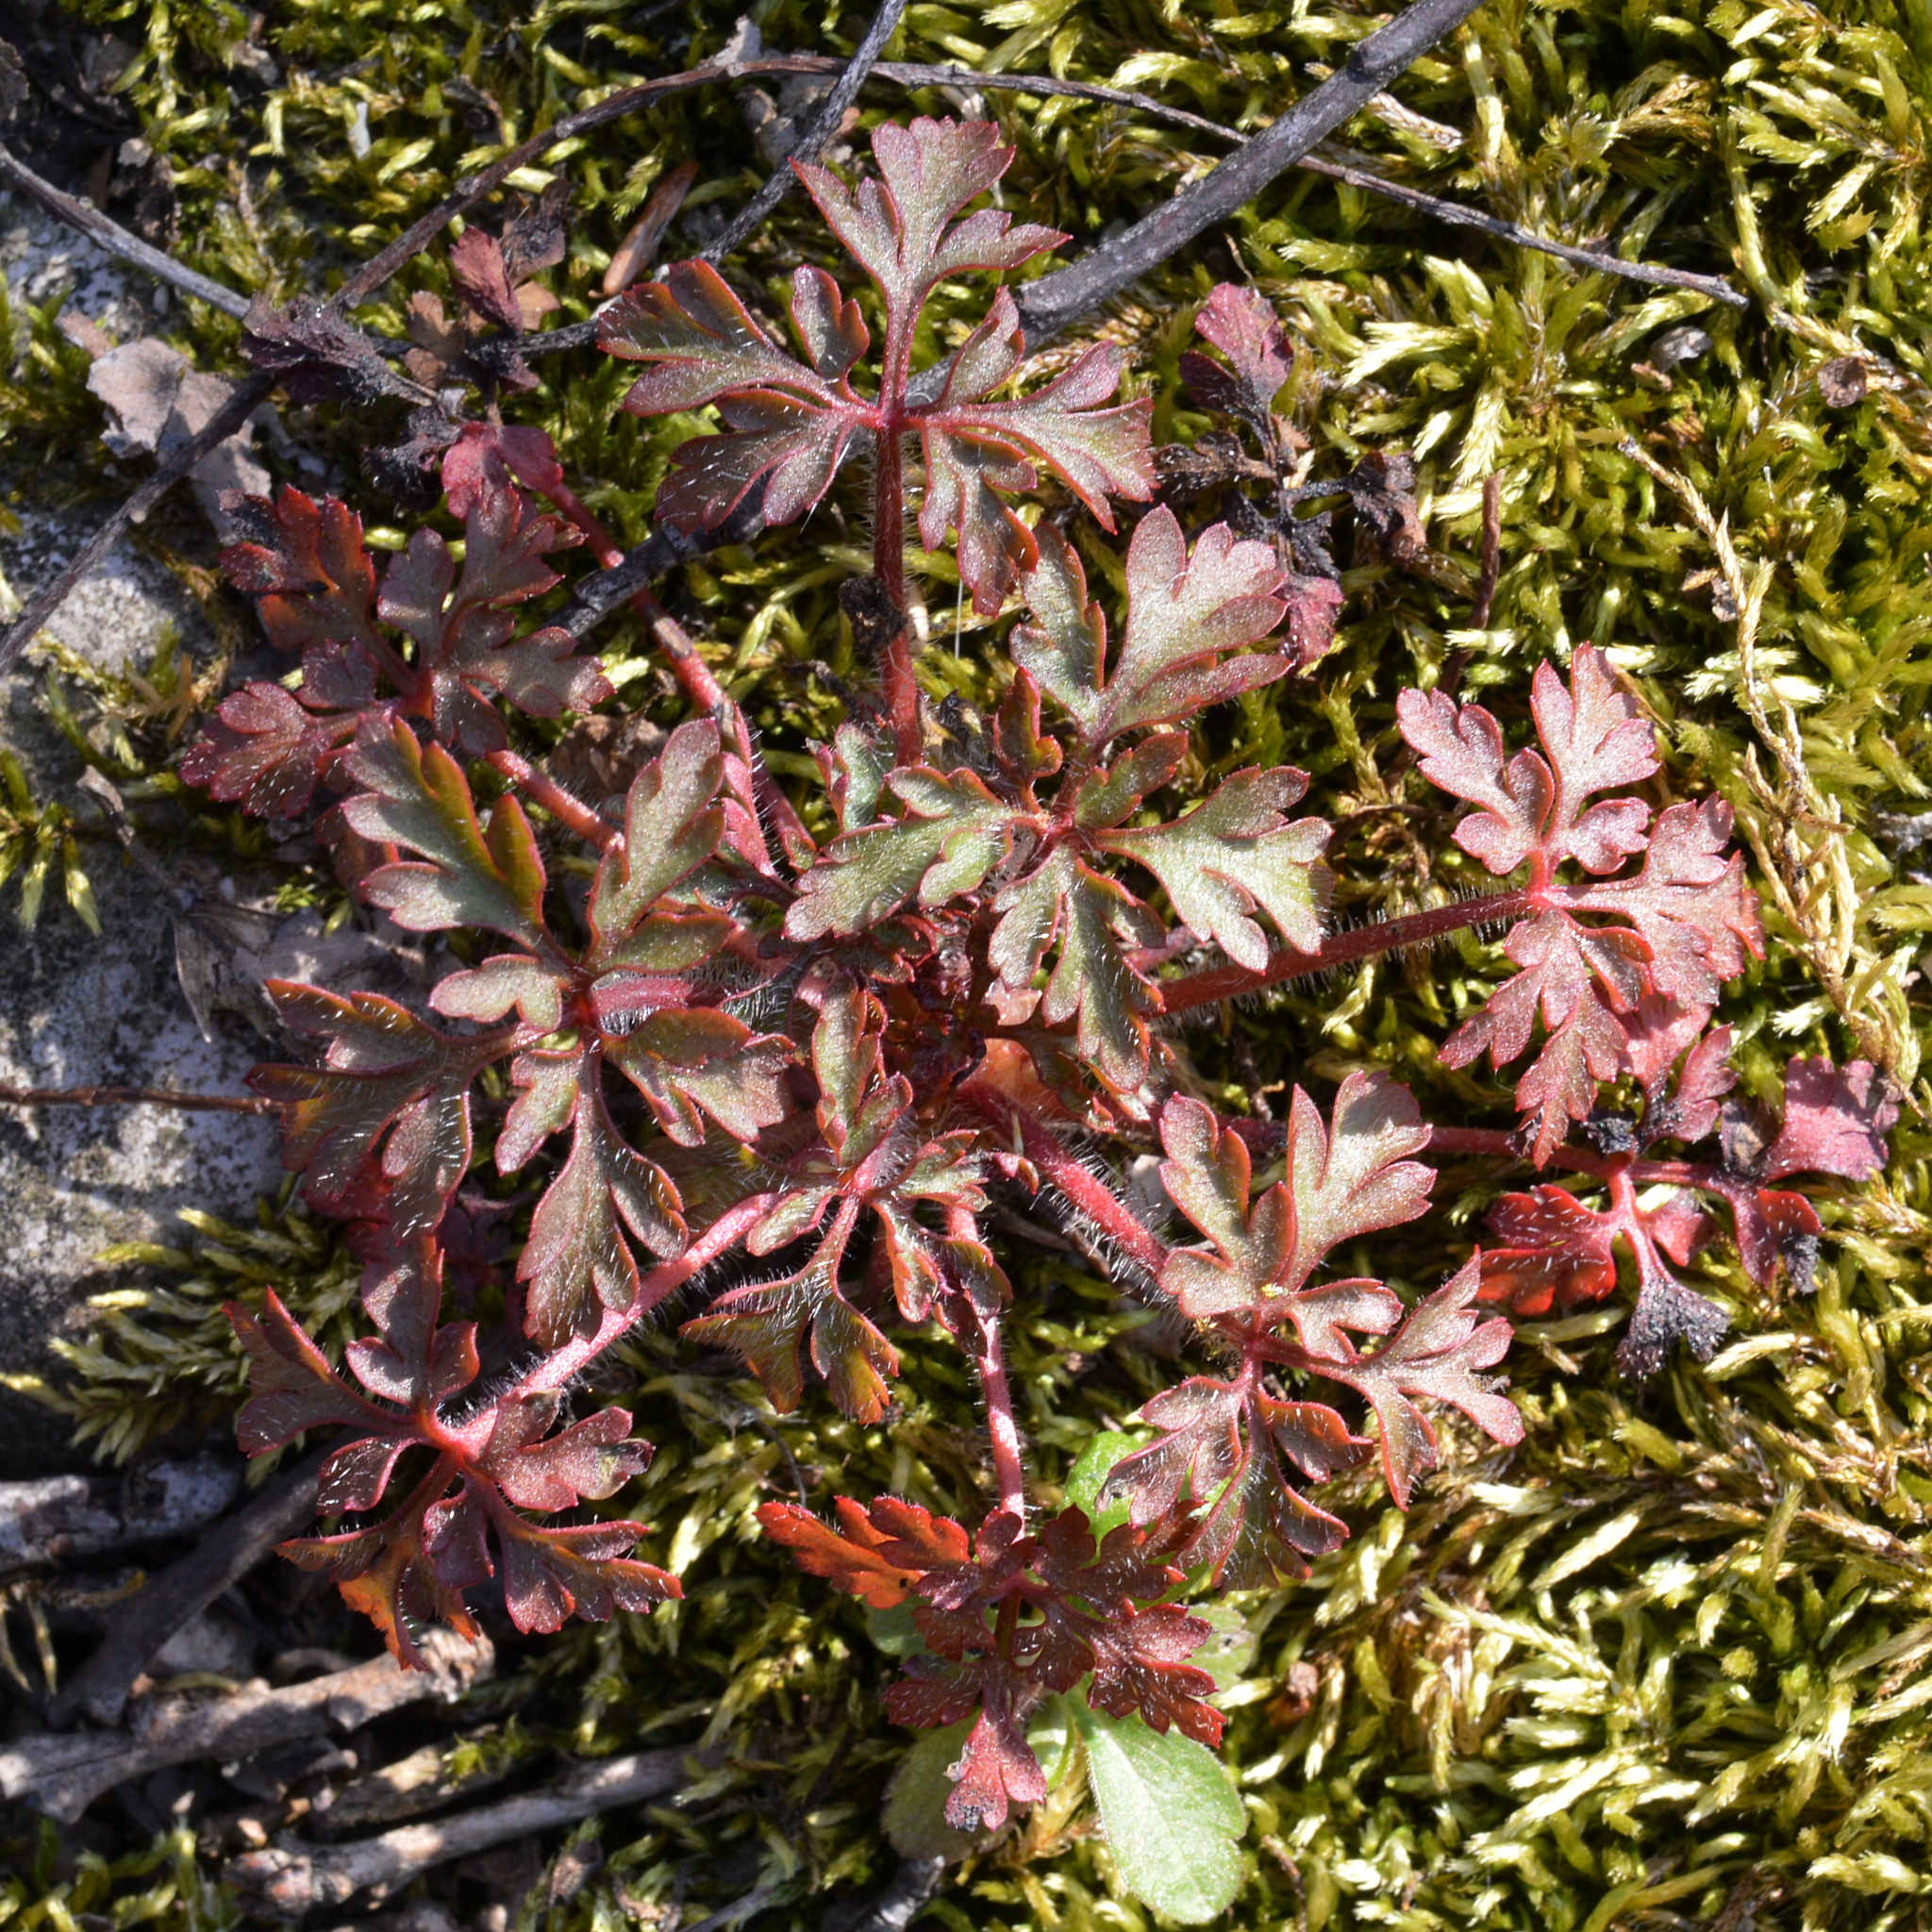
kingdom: Plantae
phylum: Tracheophyta
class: Magnoliopsida
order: Geraniales
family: Geraniaceae
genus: Geranium
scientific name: Geranium robertianum
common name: Herb-robert
